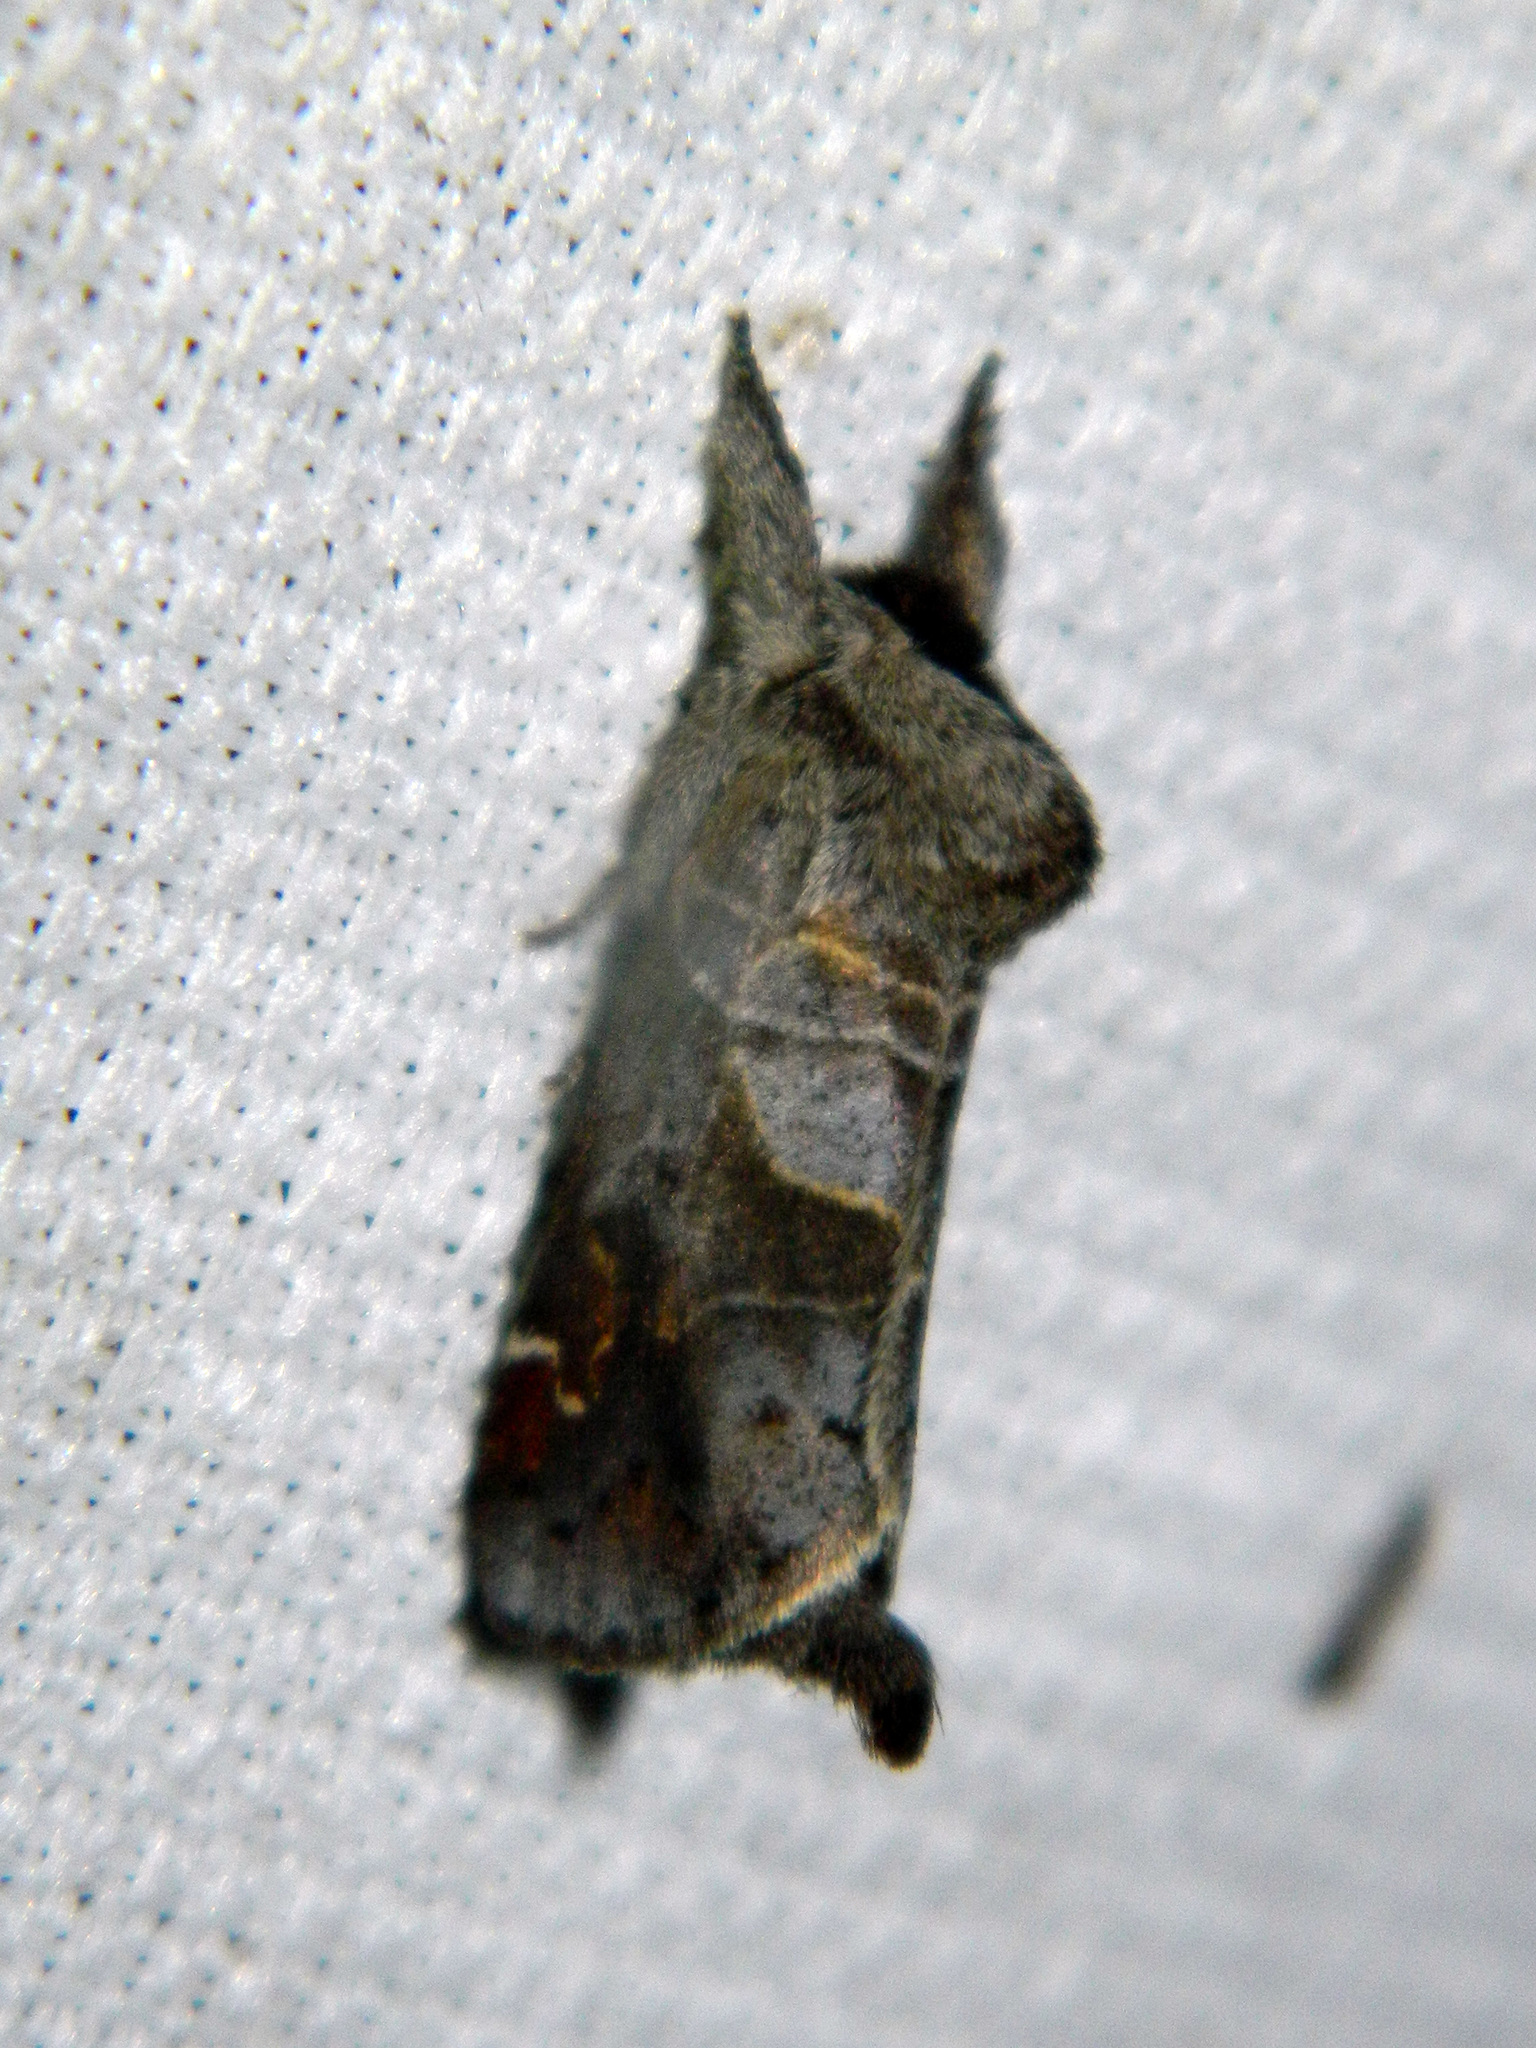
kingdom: Animalia
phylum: Arthropoda
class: Insecta
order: Lepidoptera
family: Notodontidae
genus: Clostera
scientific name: Clostera apicalis
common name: Apical prominent
